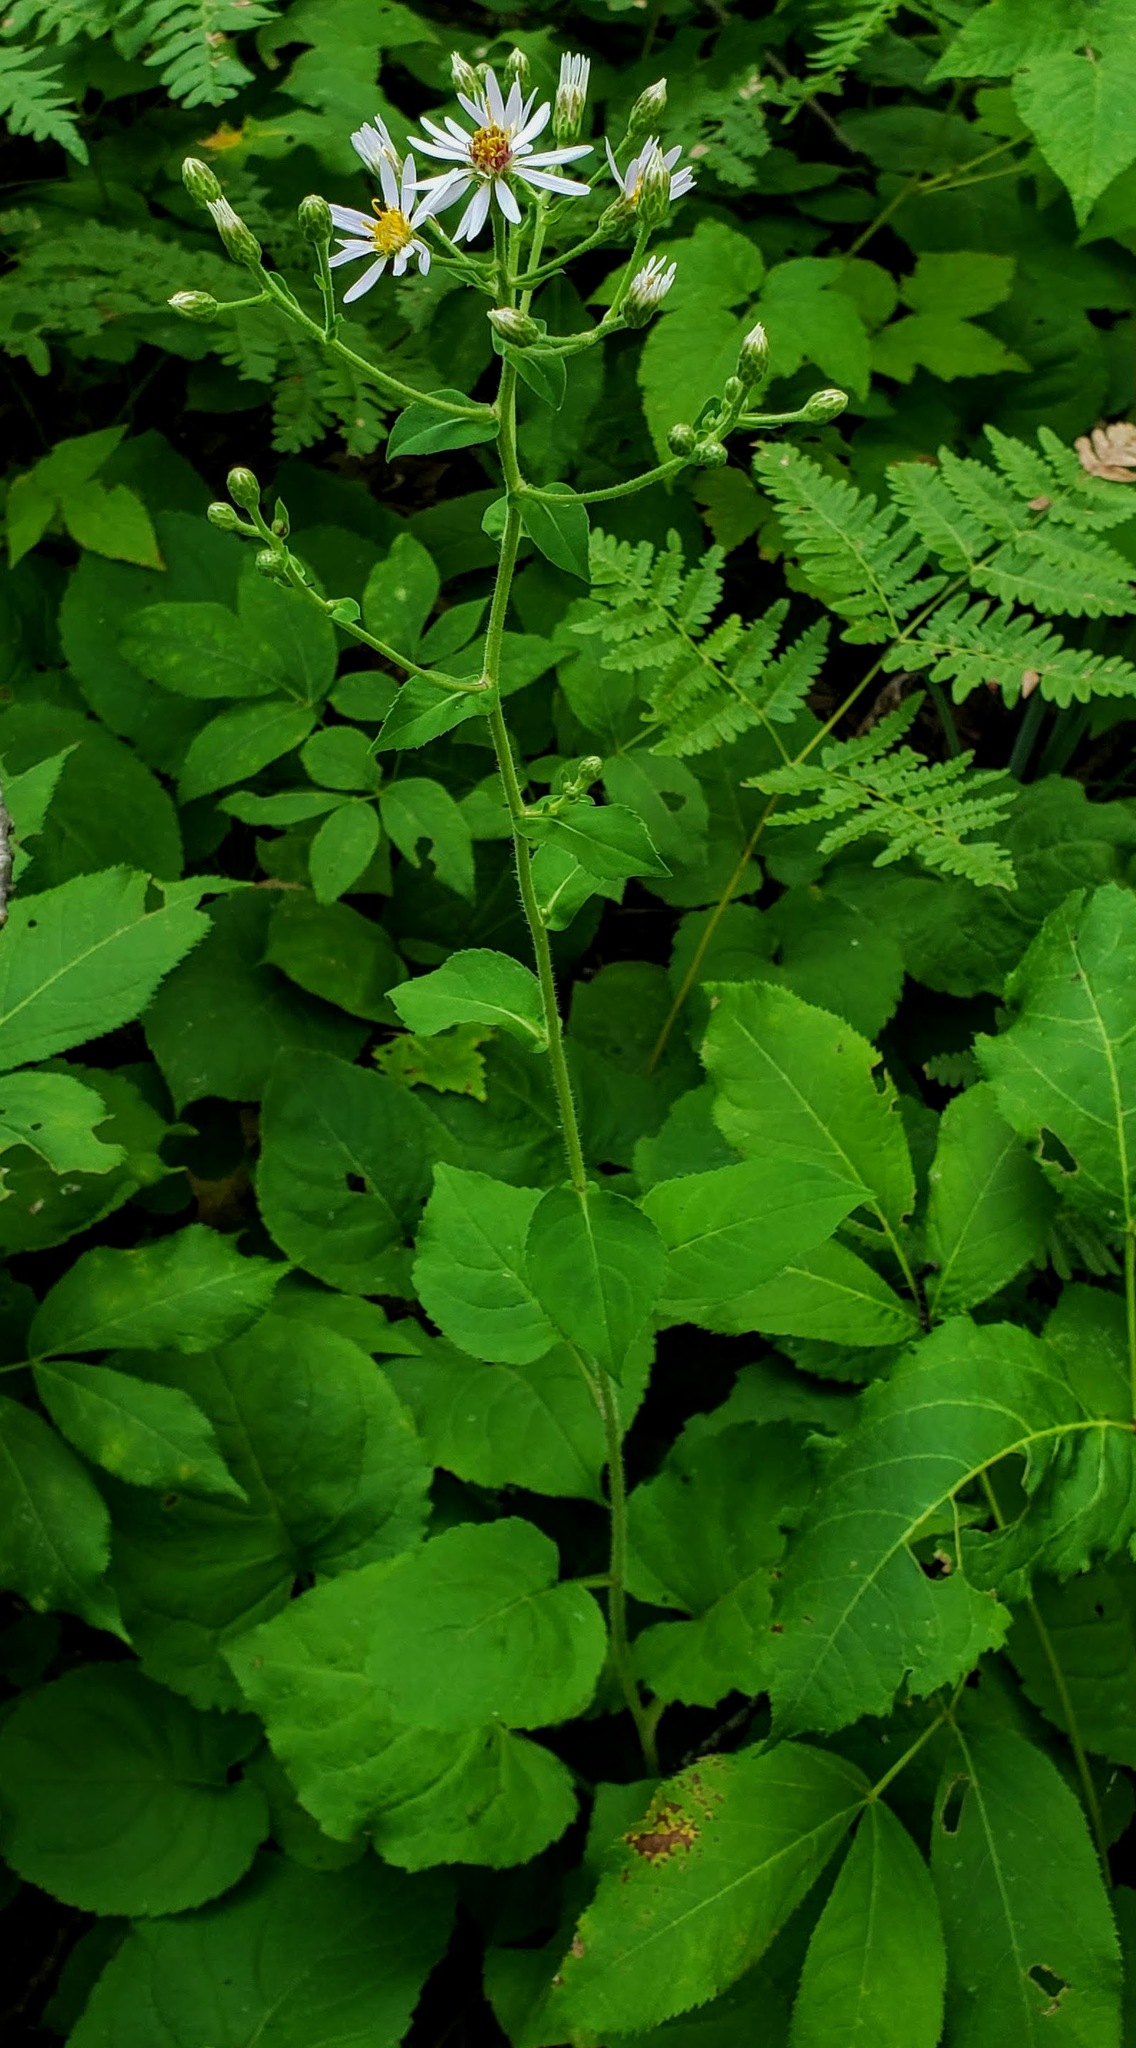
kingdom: Plantae
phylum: Tracheophyta
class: Magnoliopsida
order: Asterales
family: Asteraceae
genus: Eurybia
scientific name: Eurybia macrophylla
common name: Big-leaved aster
